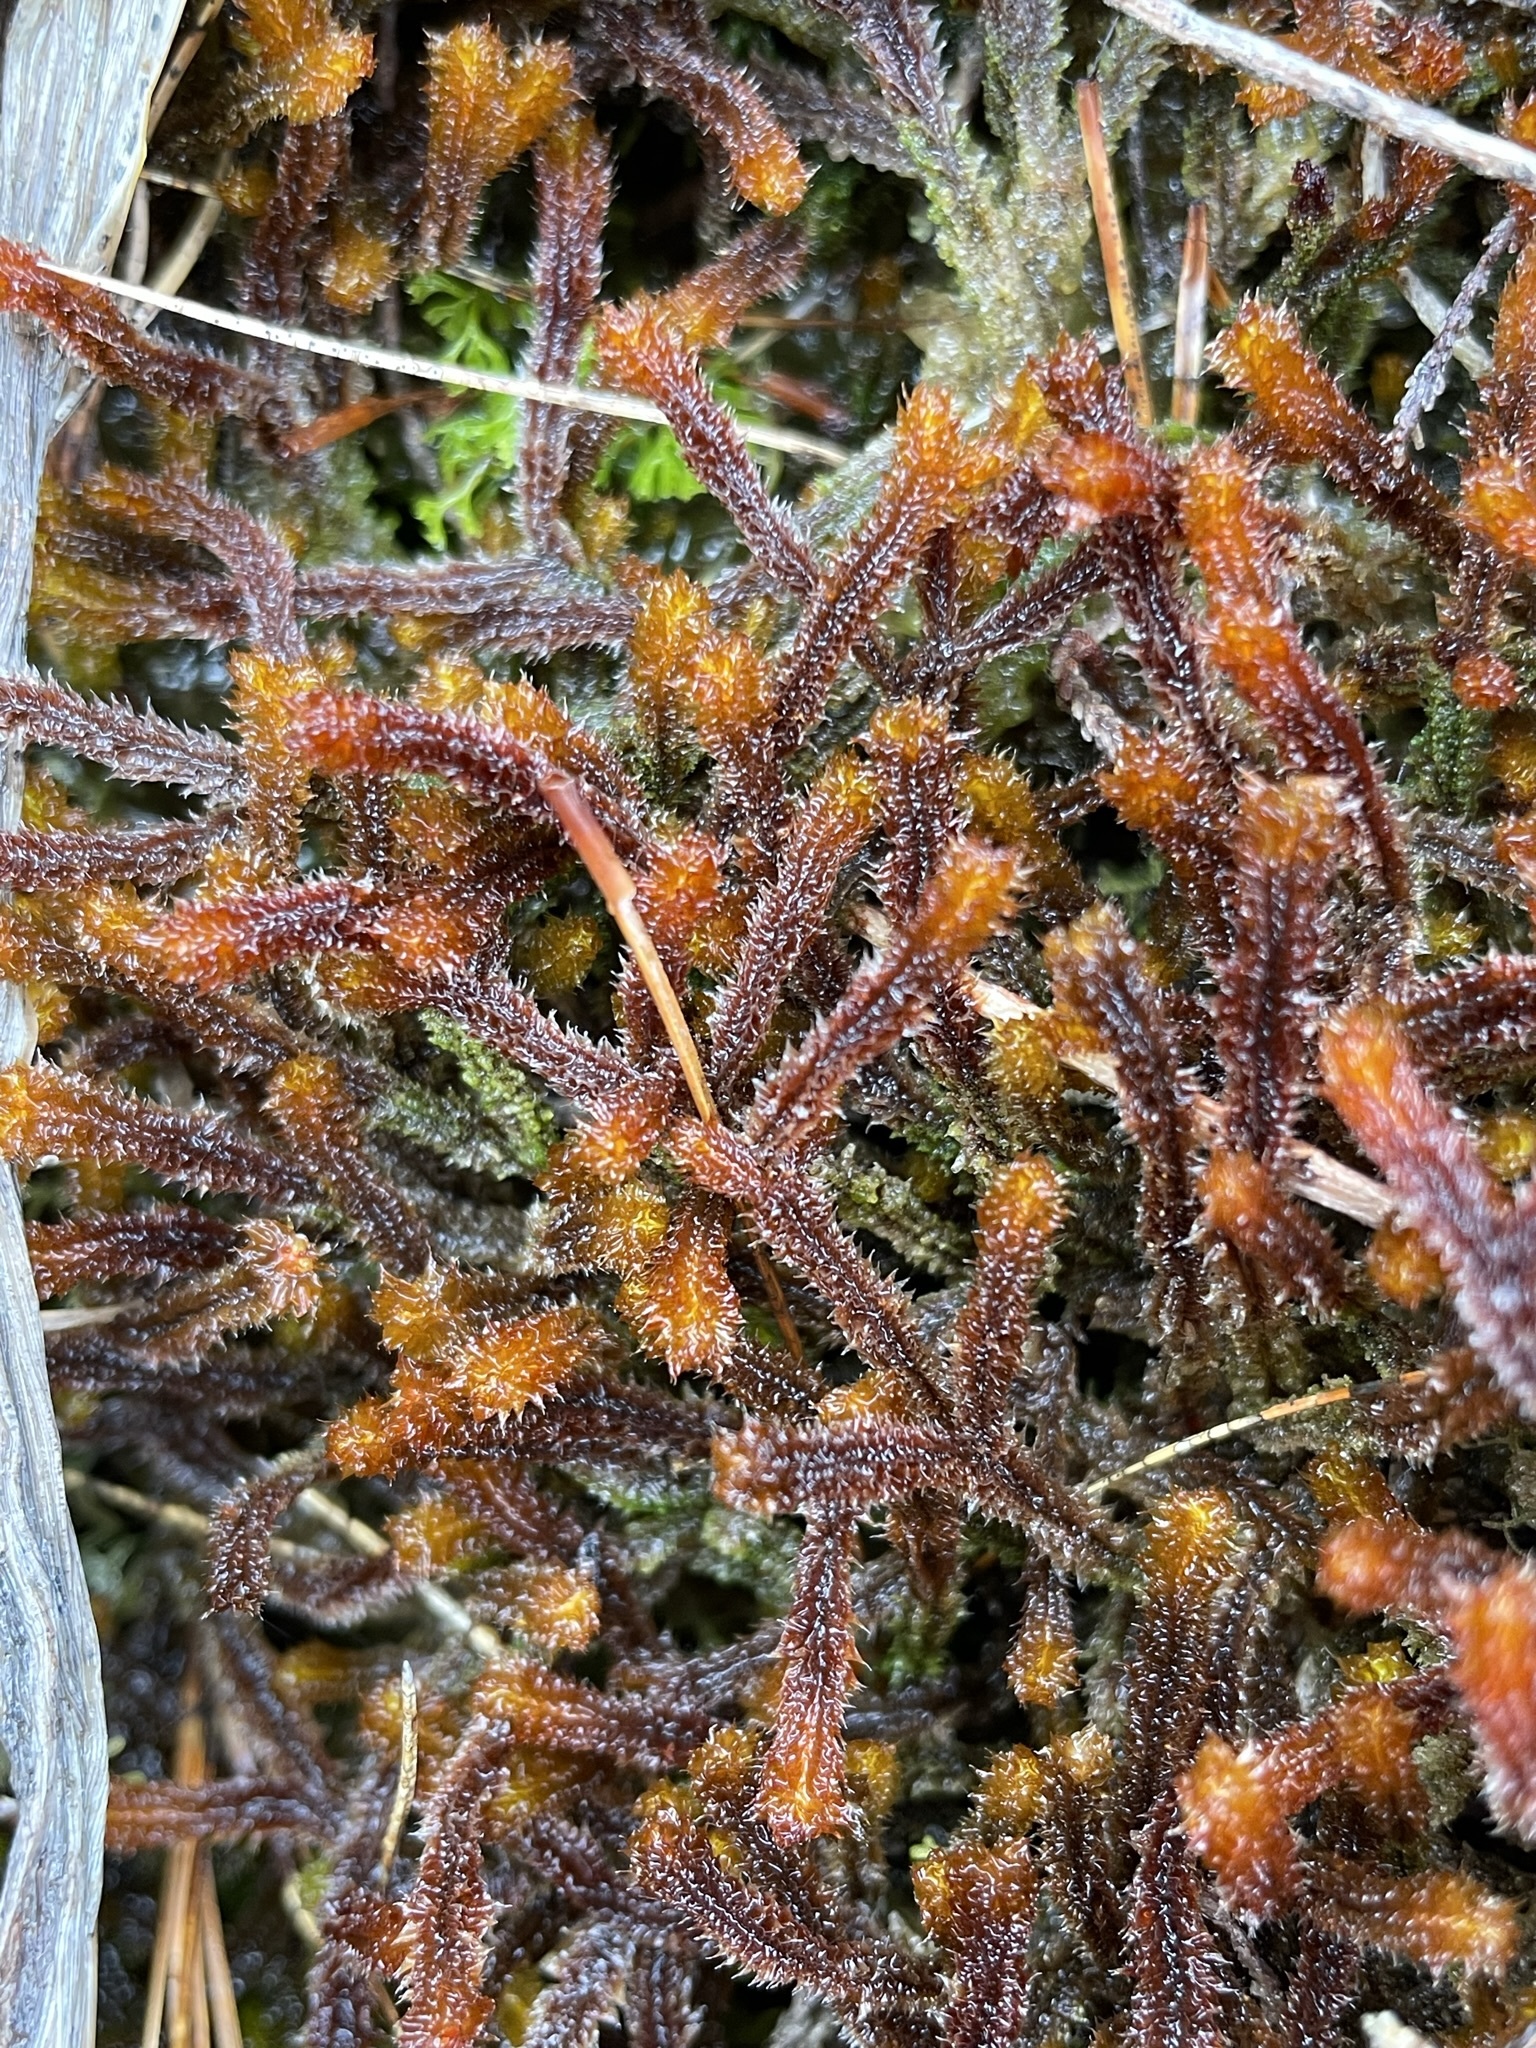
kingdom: Plantae
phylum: Marchantiophyta
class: Jungermanniopsida
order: Jungermanniales
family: Anastrophyllaceae
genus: Chandonanthus
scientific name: Chandonanthus squarrosus
